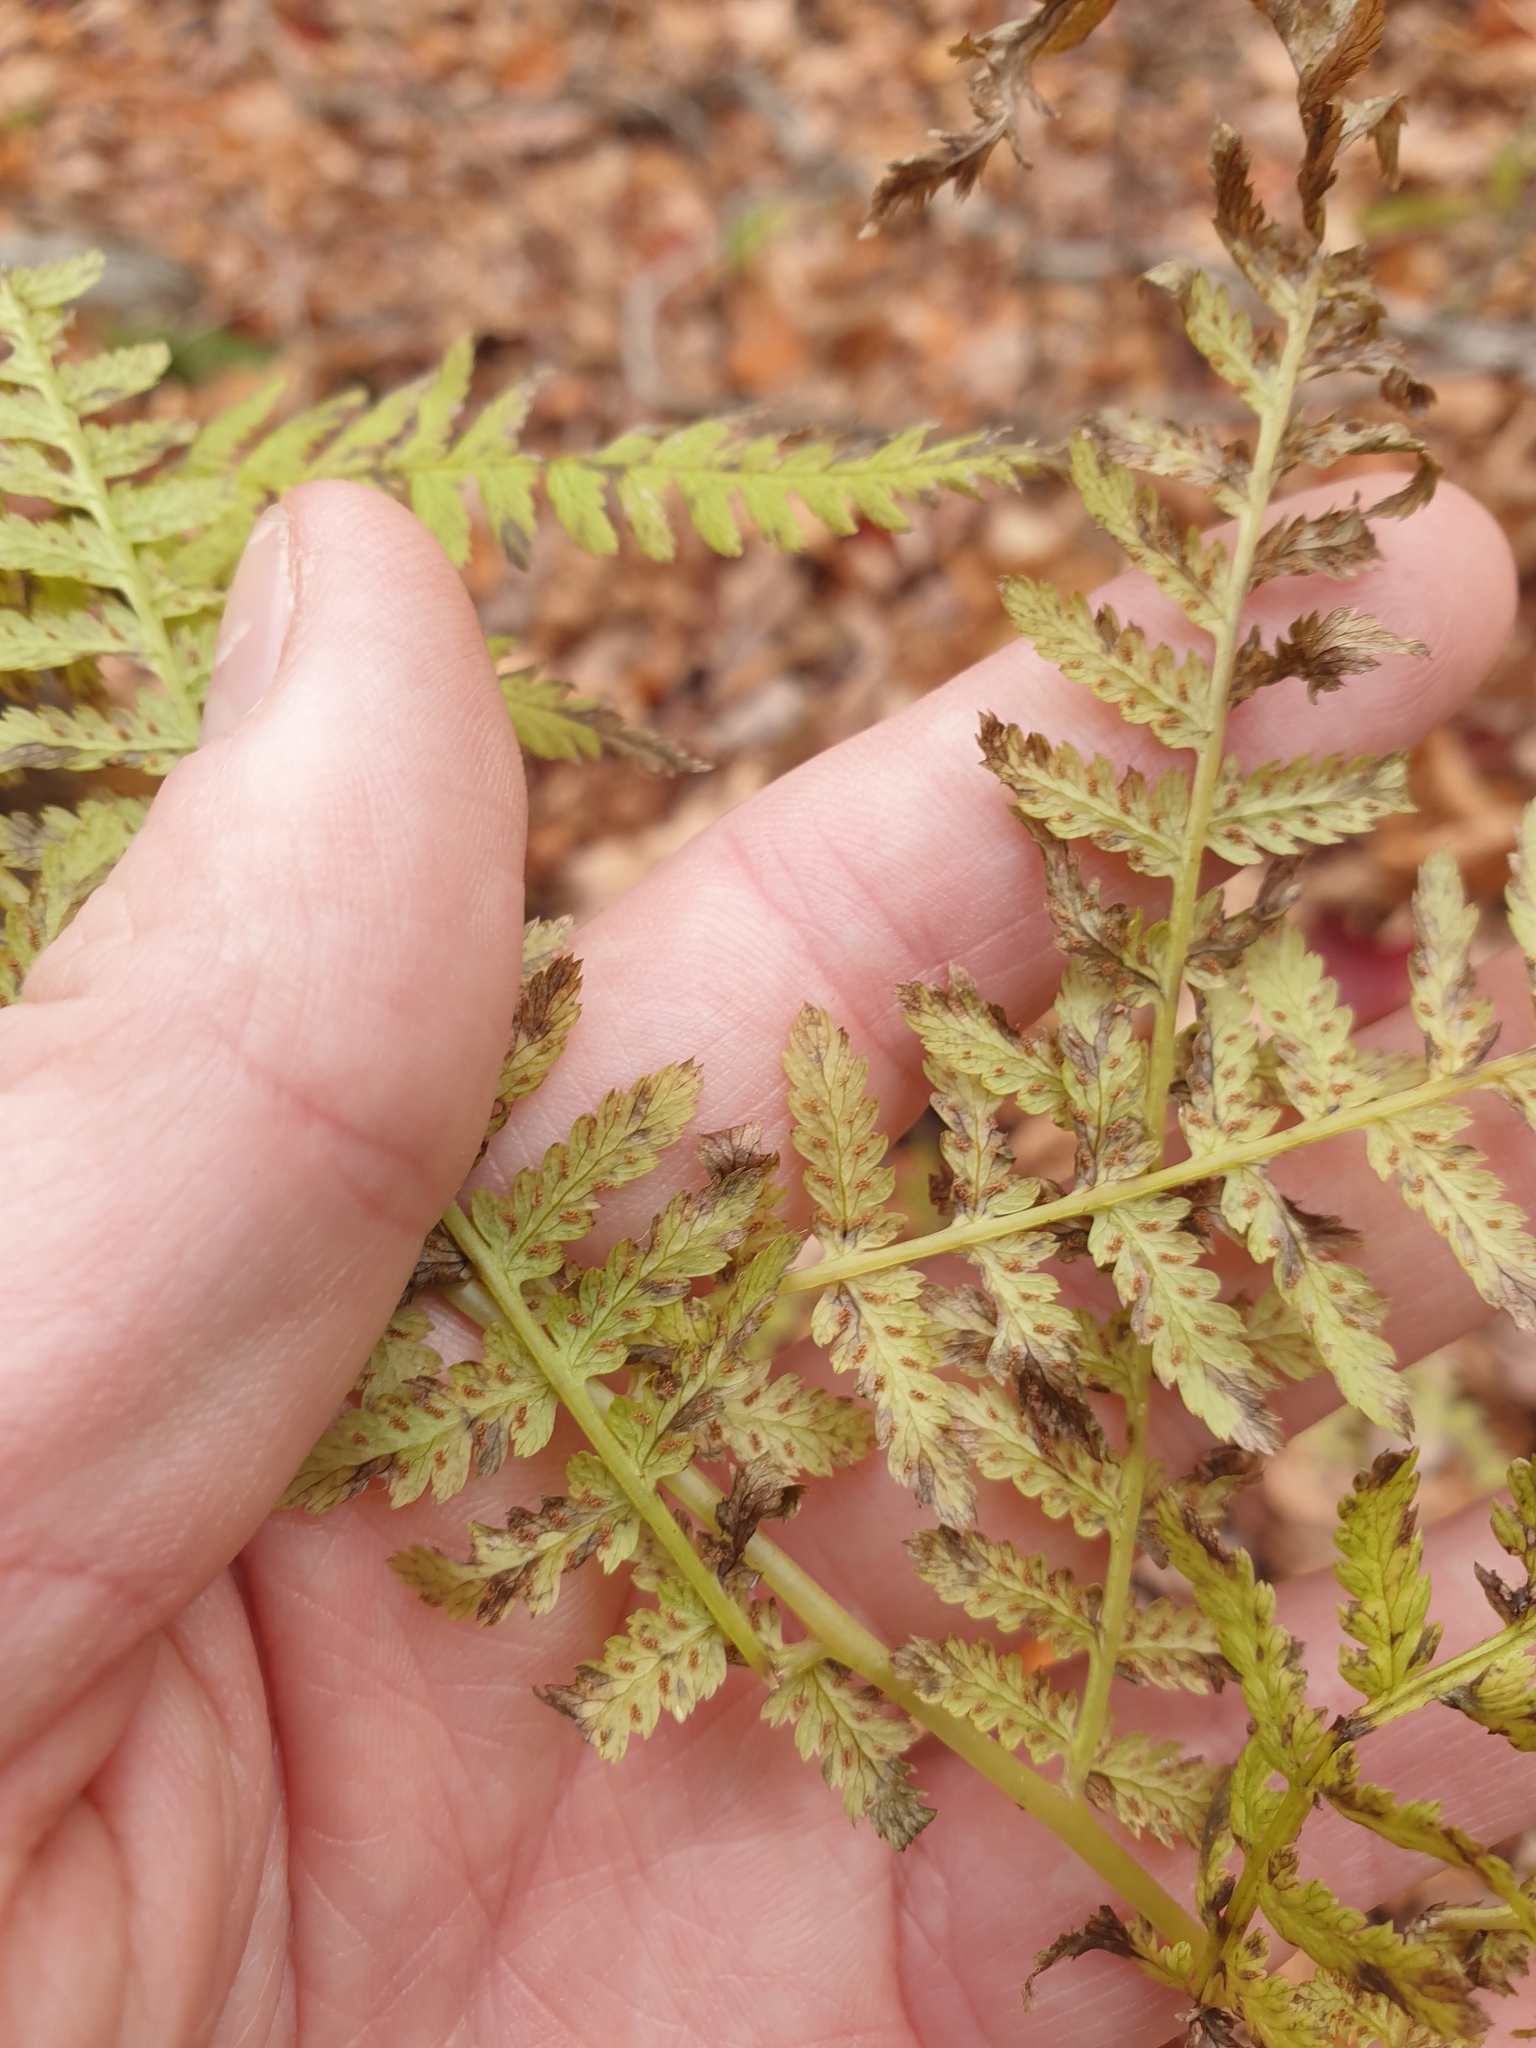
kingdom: Plantae
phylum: Tracheophyta
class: Polypodiopsida
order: Polypodiales
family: Athyriaceae
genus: Athyrium
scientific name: Athyrium angustum
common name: Northern lady fern
